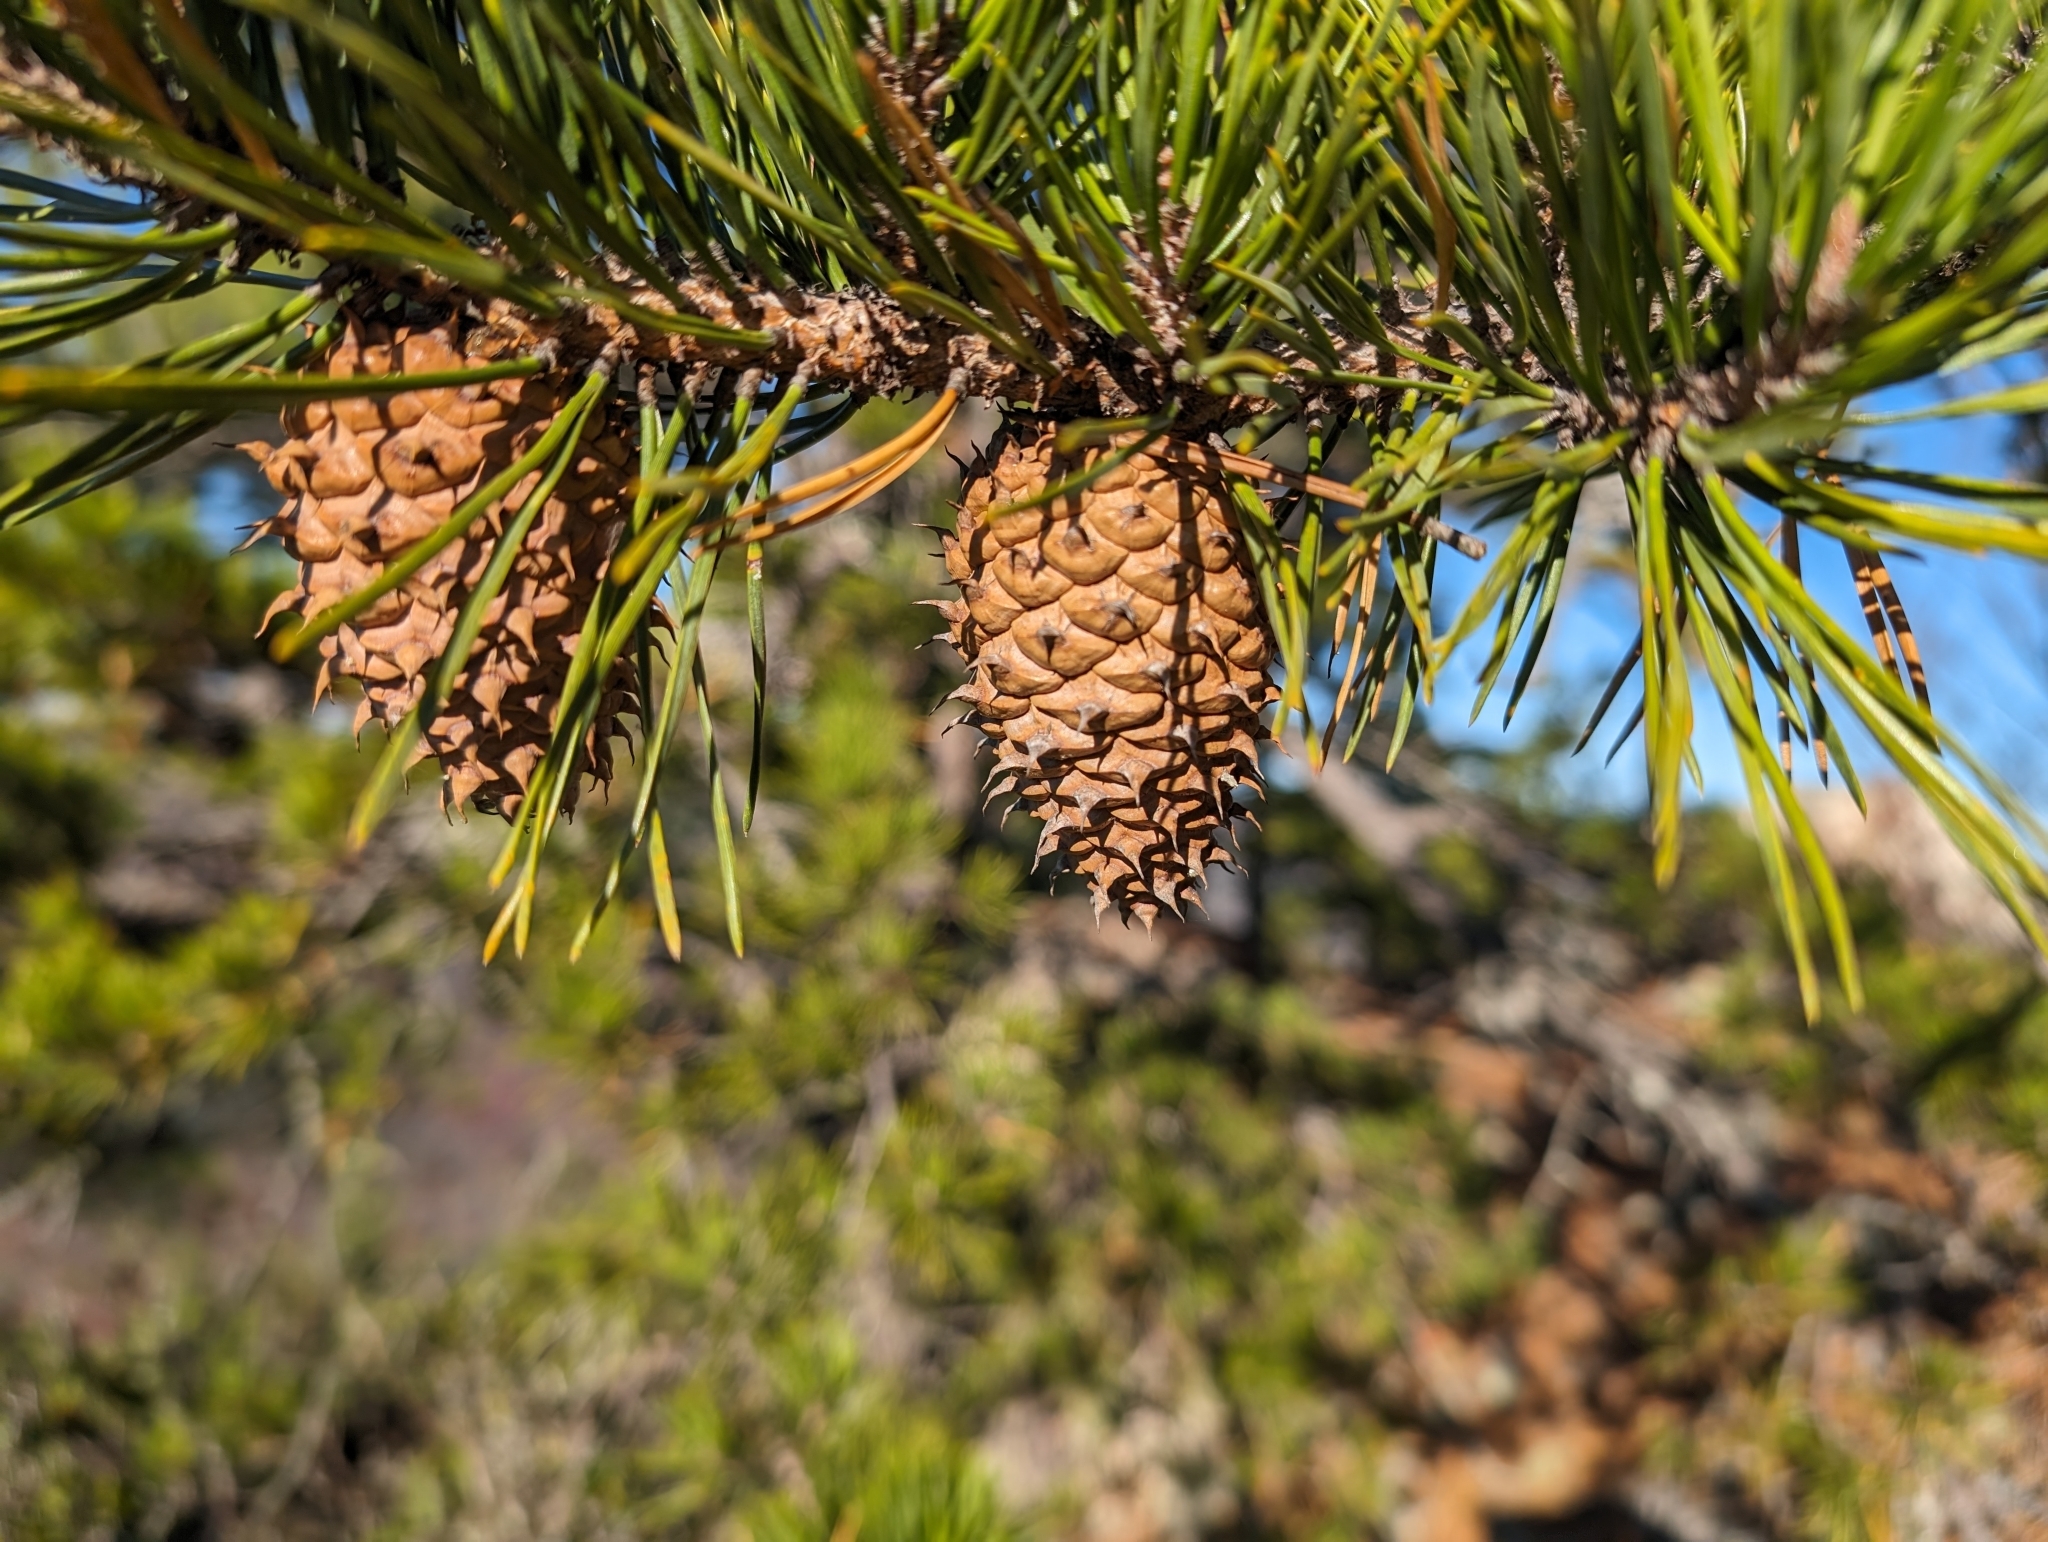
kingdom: Plantae
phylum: Tracheophyta
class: Pinopsida
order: Pinales
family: Pinaceae
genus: Pinus
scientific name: Pinus pungens
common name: Hickory pine
